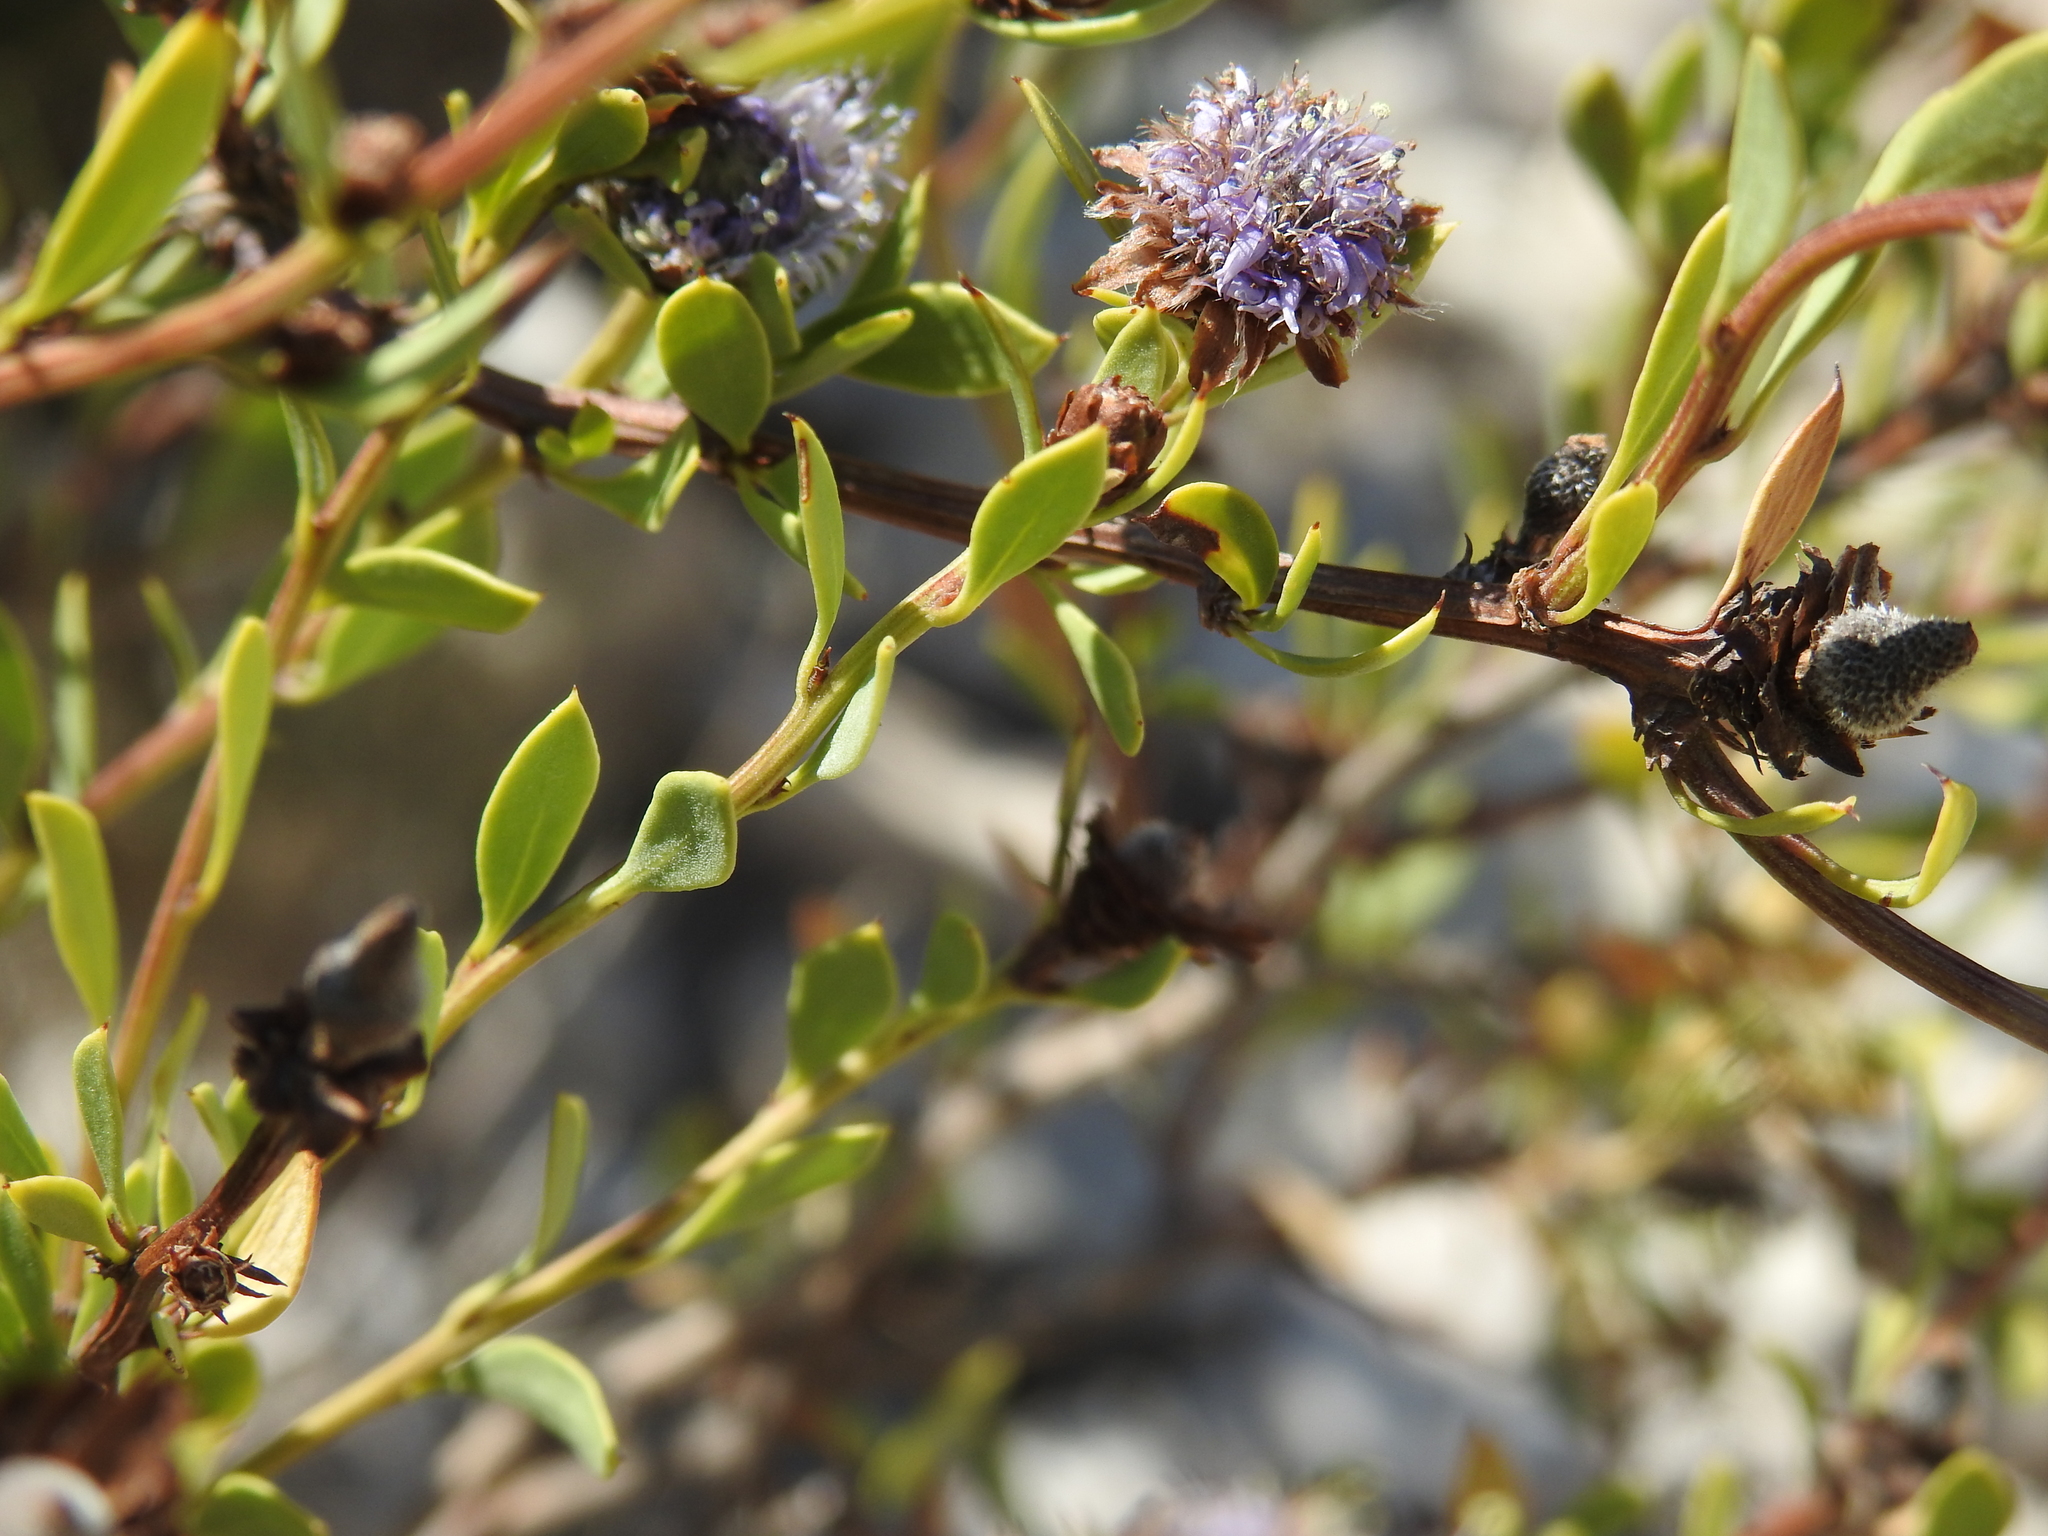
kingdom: Plantae
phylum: Tracheophyta
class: Magnoliopsida
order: Lamiales
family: Plantaginaceae
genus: Globularia
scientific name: Globularia alypum
